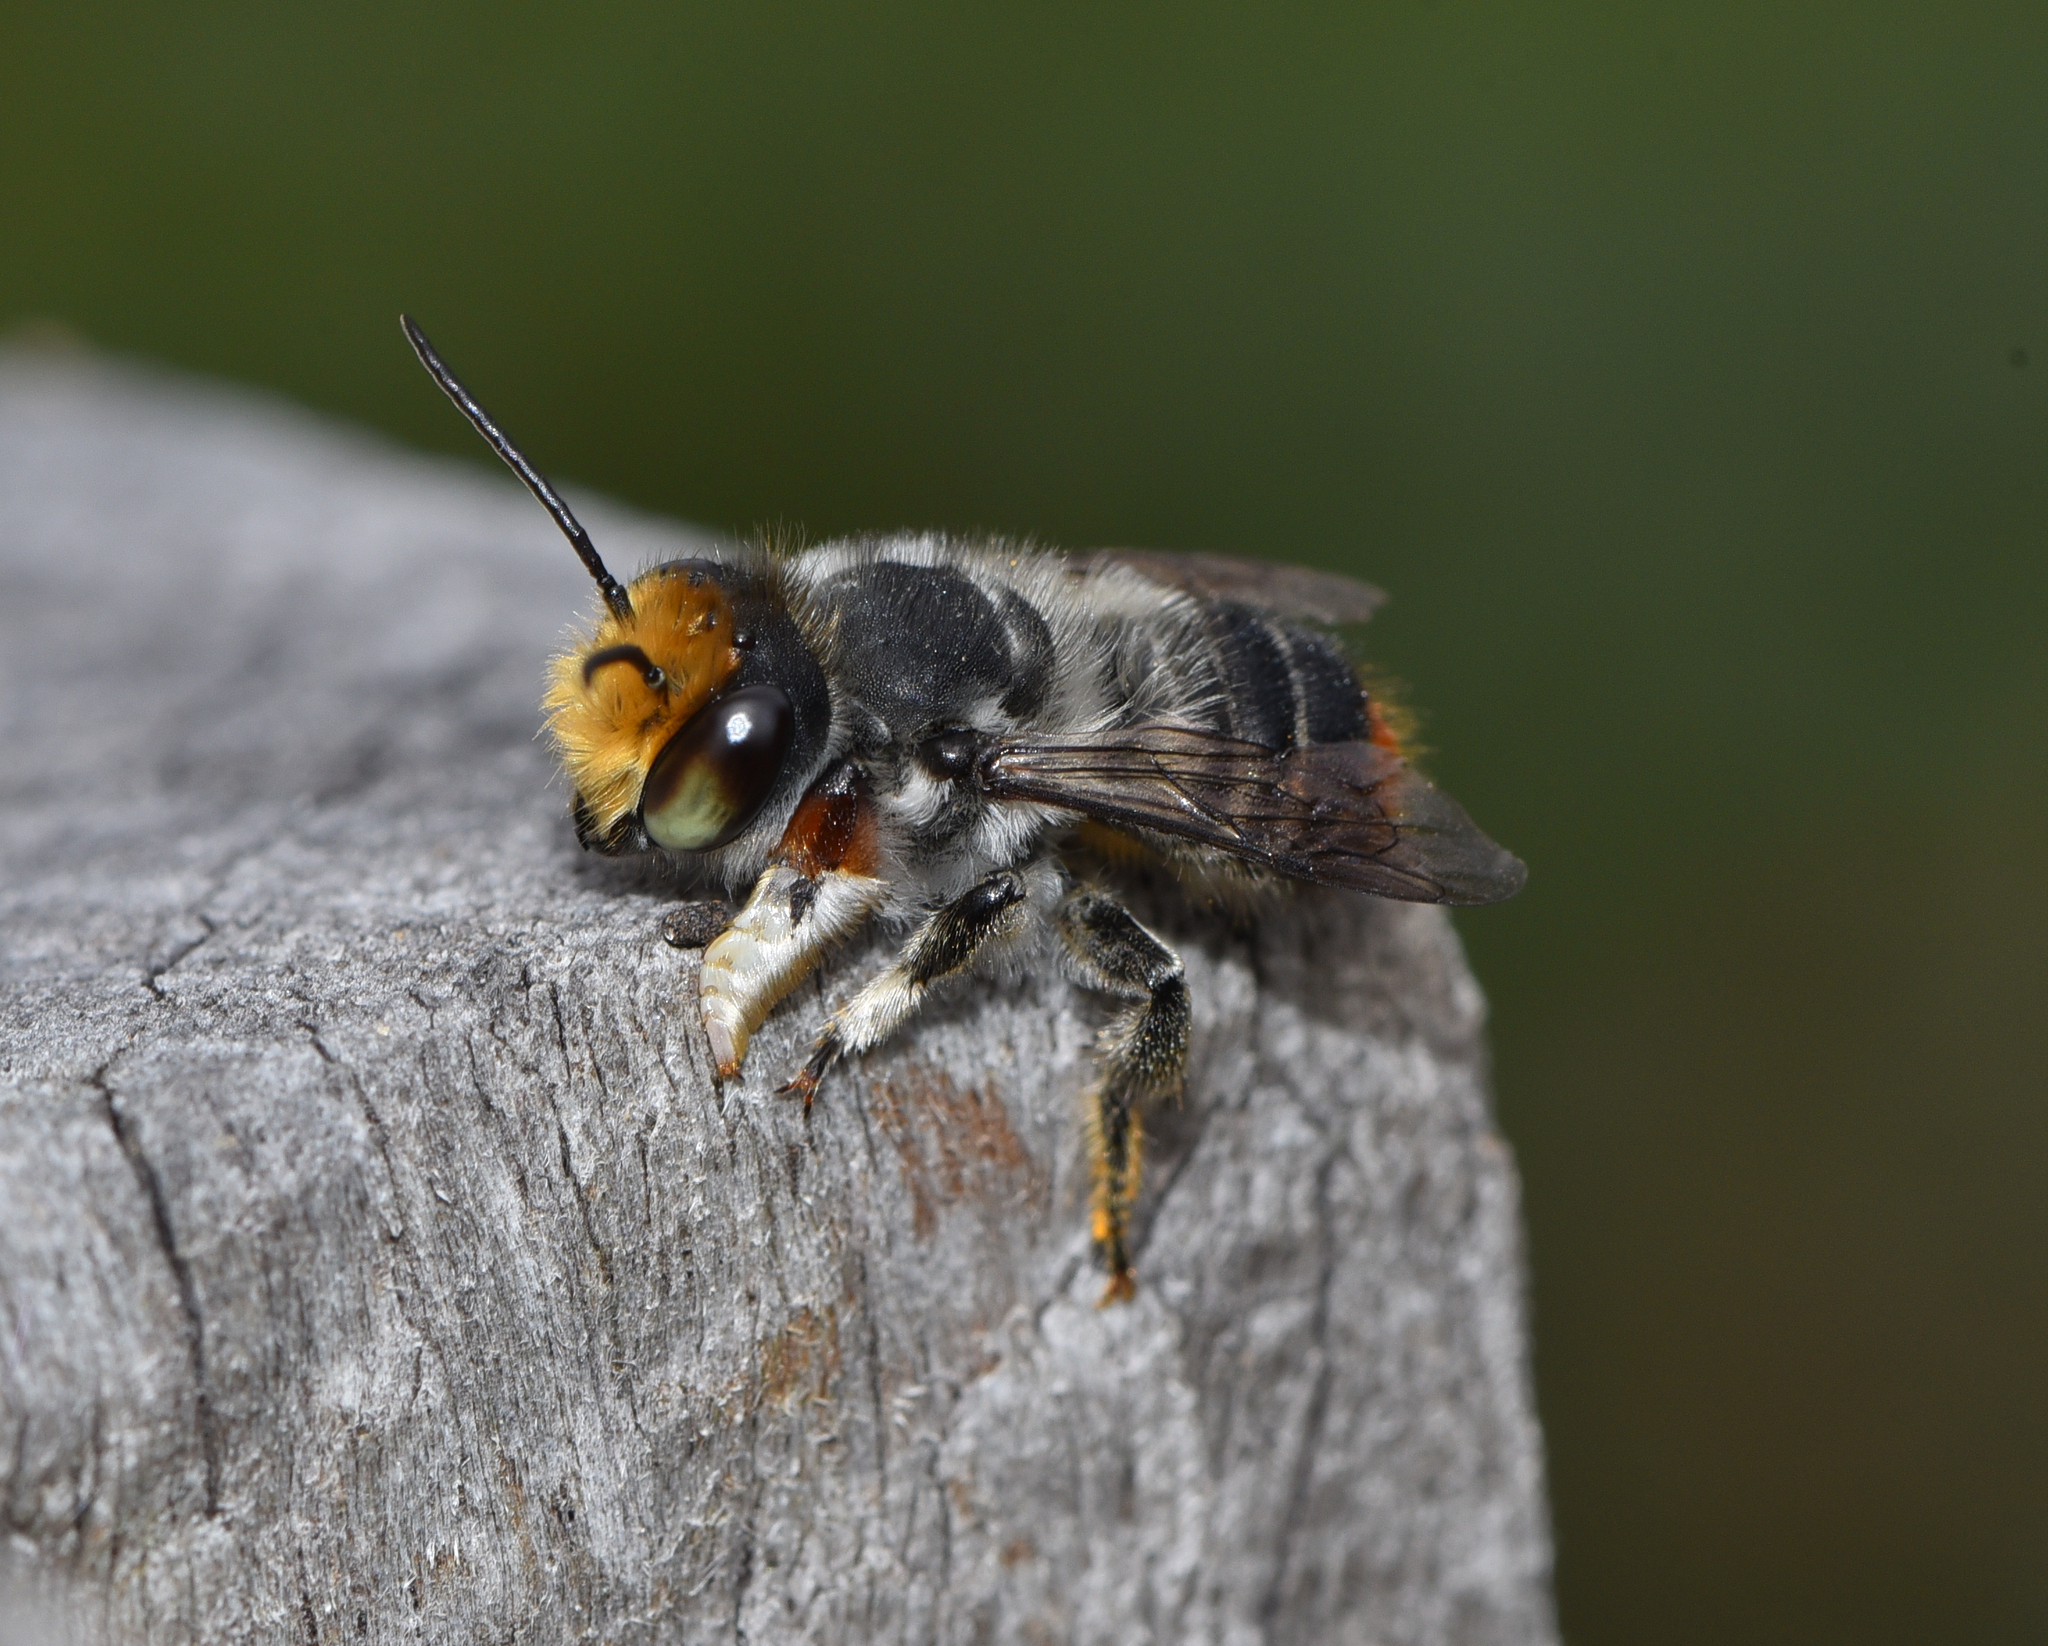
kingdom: Animalia
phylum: Arthropoda
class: Insecta
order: Hymenoptera
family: Megachilidae
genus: Megachile
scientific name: Megachile chrysopyga
